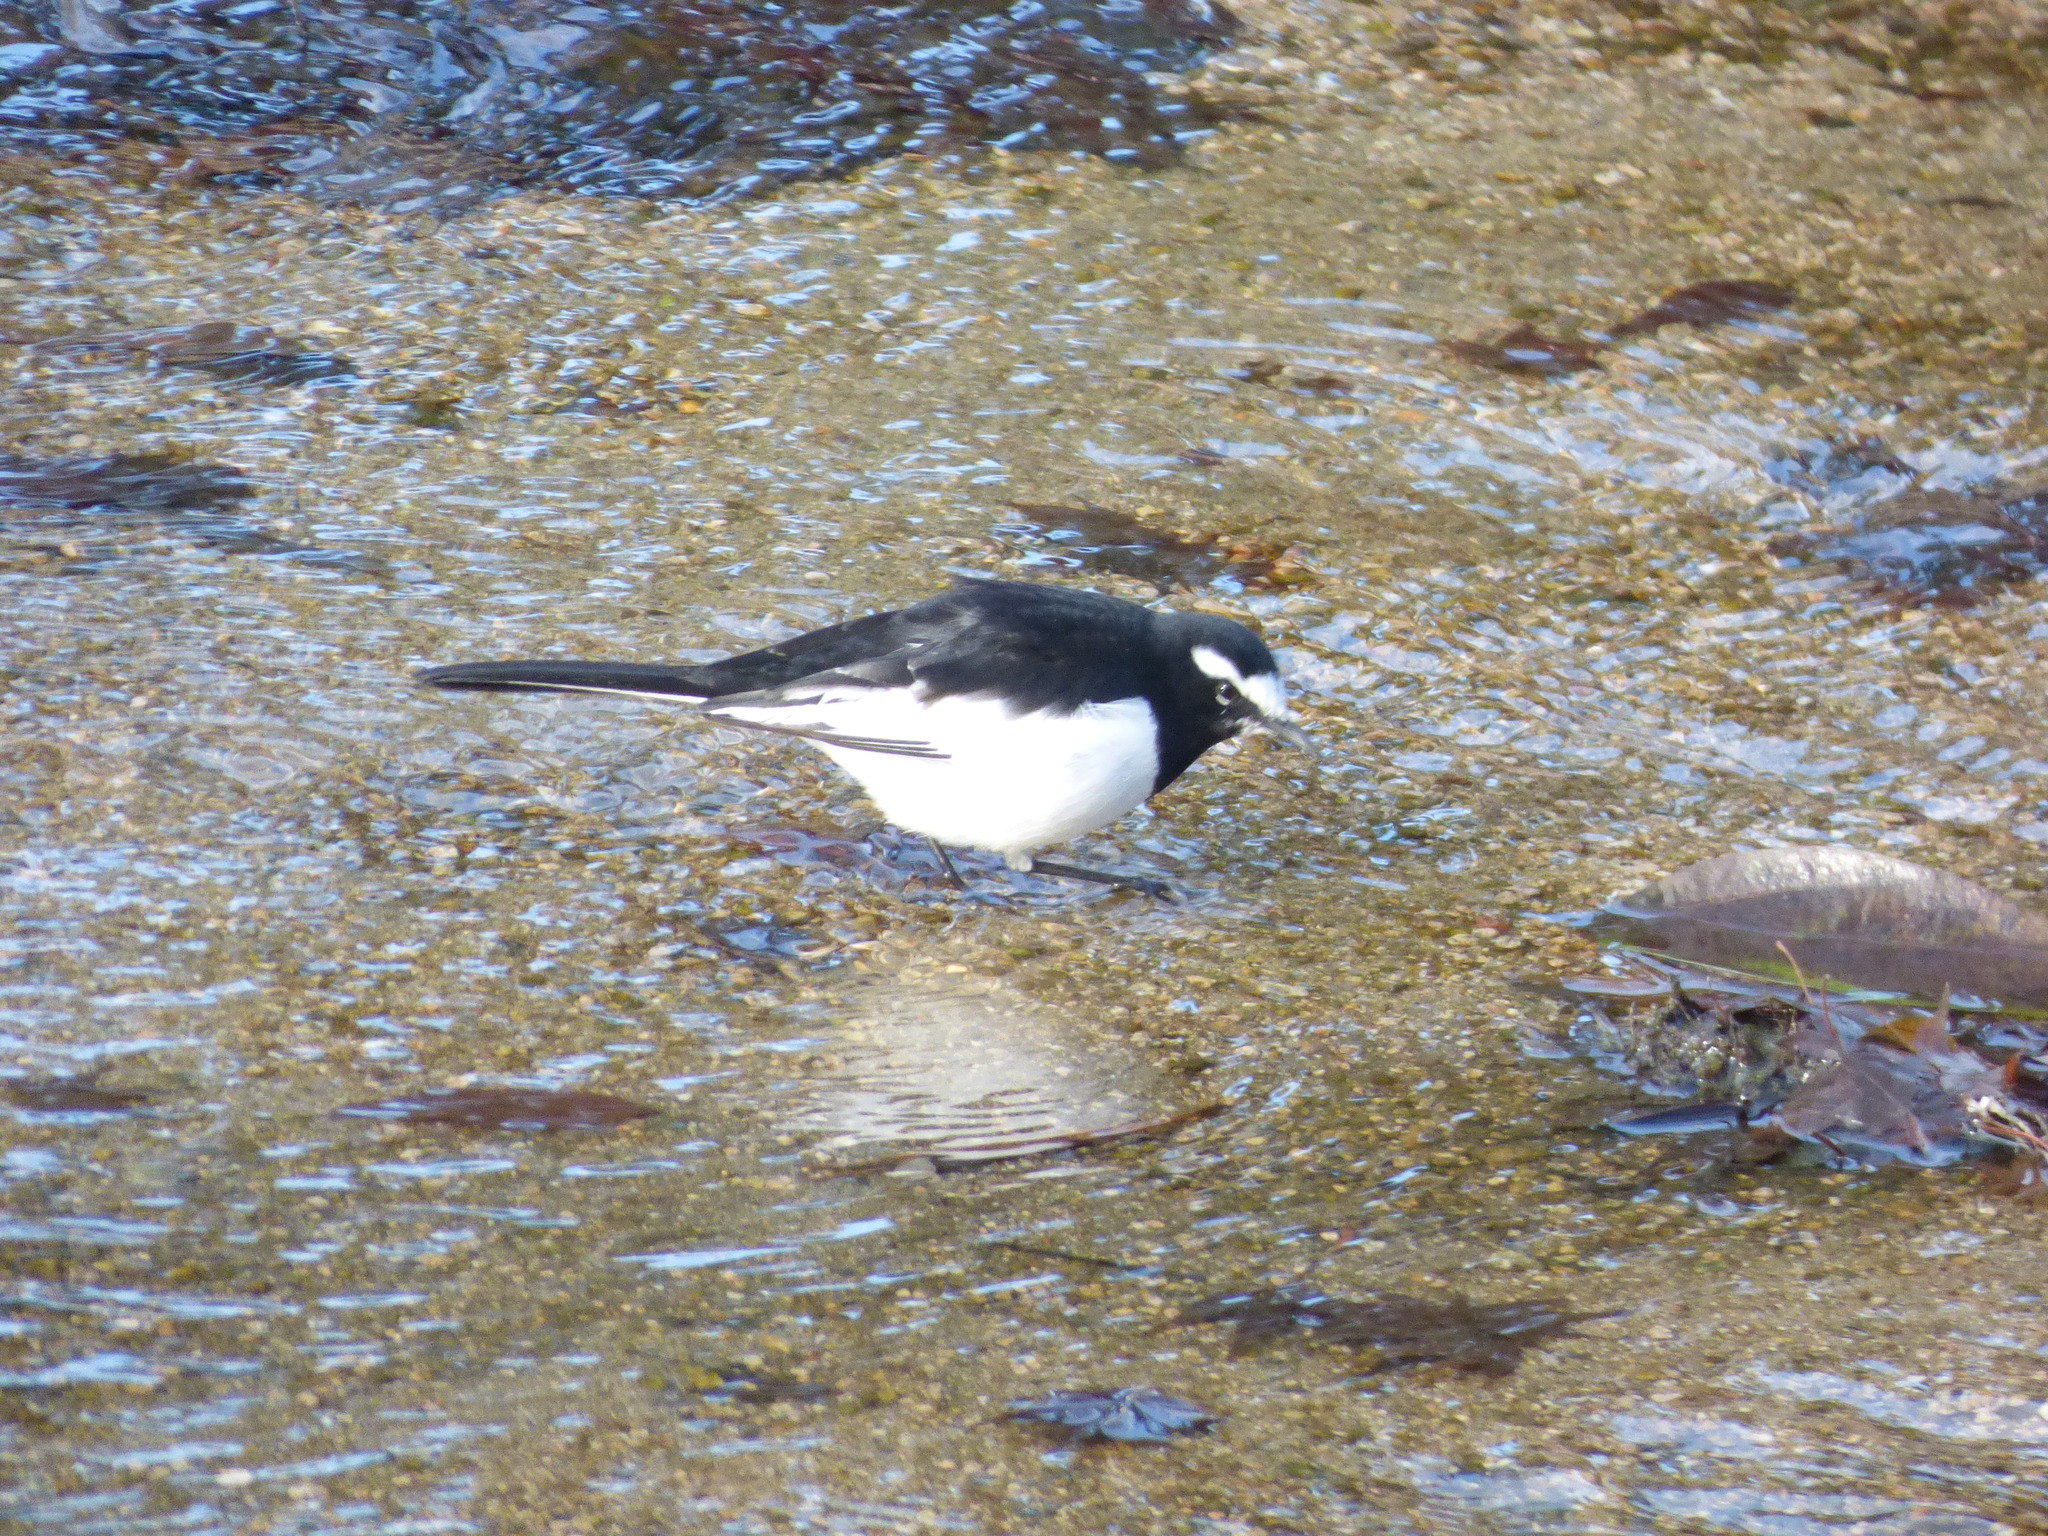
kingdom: Animalia
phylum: Chordata
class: Aves
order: Passeriformes
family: Motacillidae
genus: Motacilla
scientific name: Motacilla grandis
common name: Japanese wagtail
